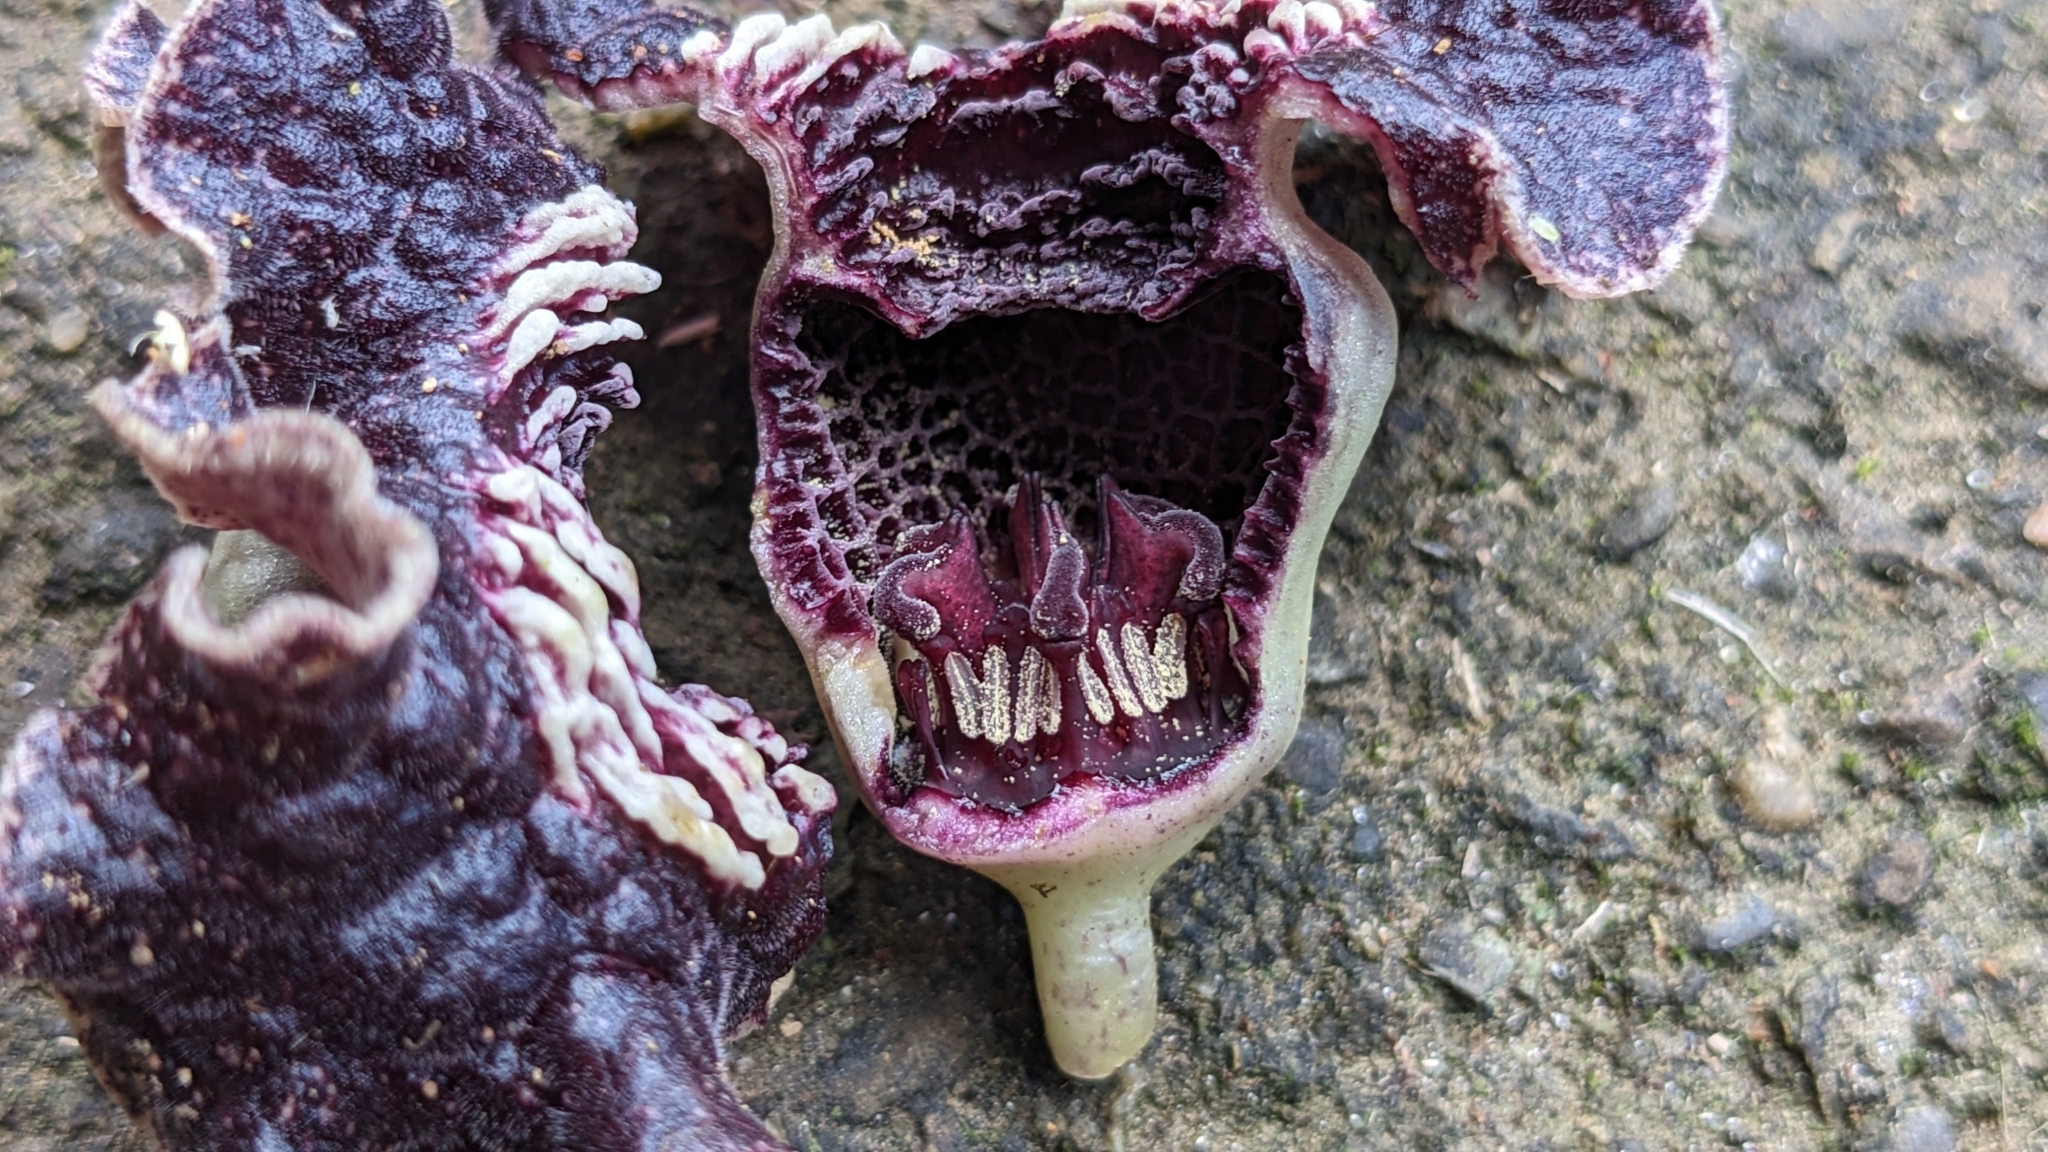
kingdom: Plantae
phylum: Tracheophyta
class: Magnoliopsida
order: Piperales
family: Aristolochiaceae
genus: Asarum
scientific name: Asarum macranthum
